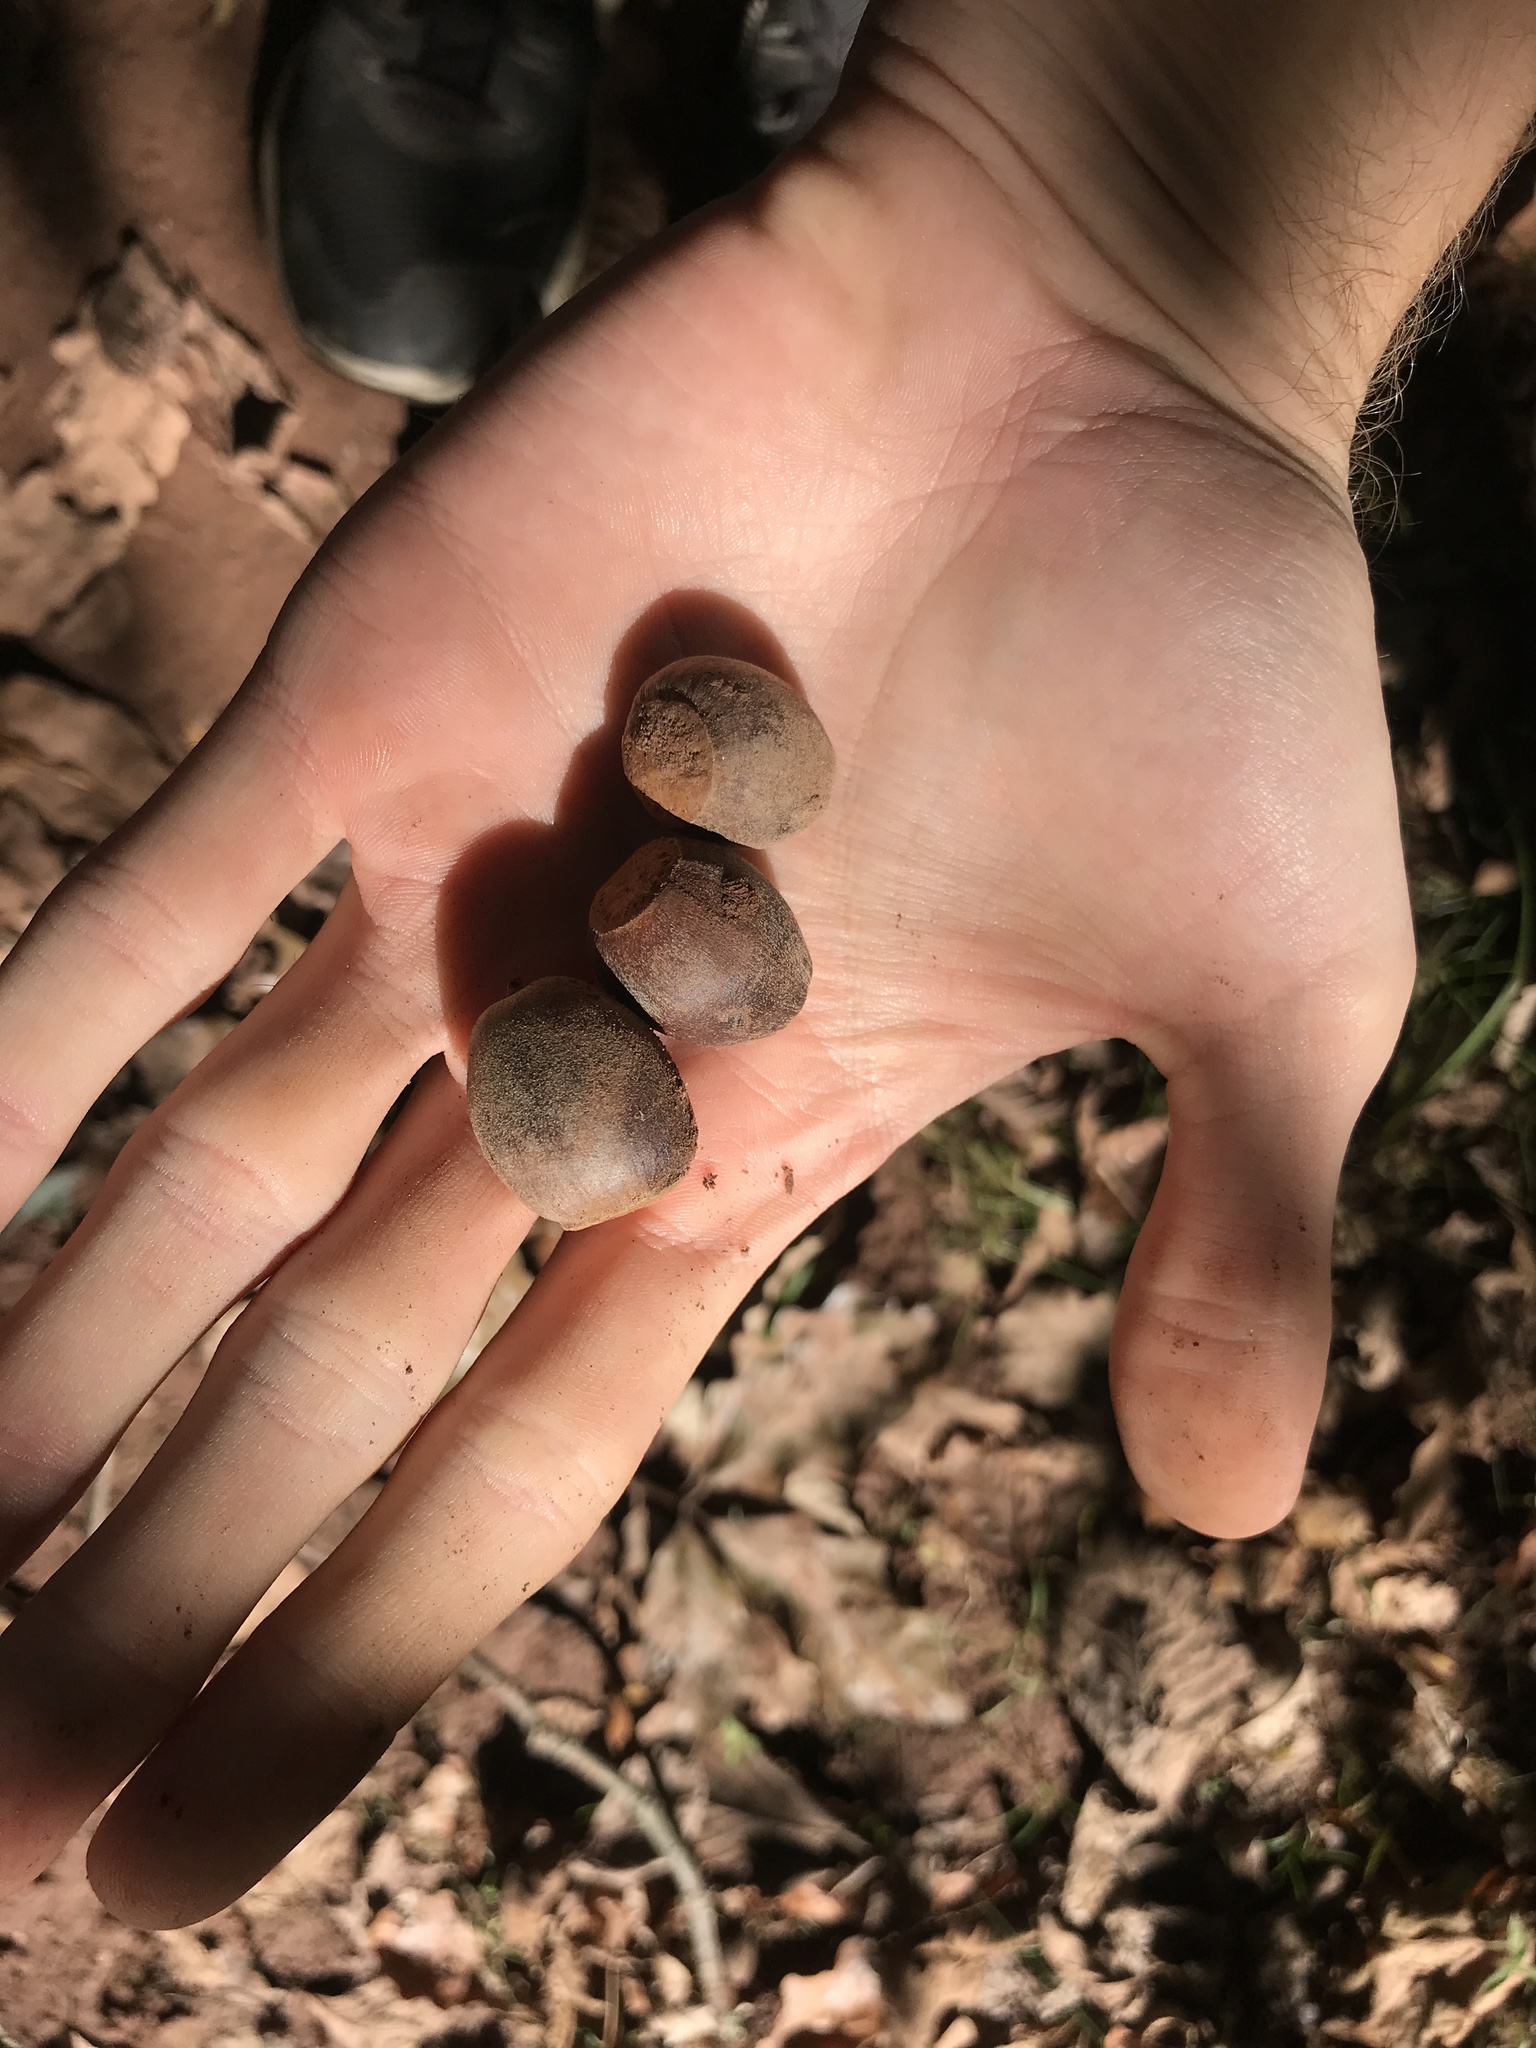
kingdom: Plantae
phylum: Tracheophyta
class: Magnoliopsida
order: Fagales
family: Fagaceae
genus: Quercus
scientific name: Quercus bicolor
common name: Swamp white oak
